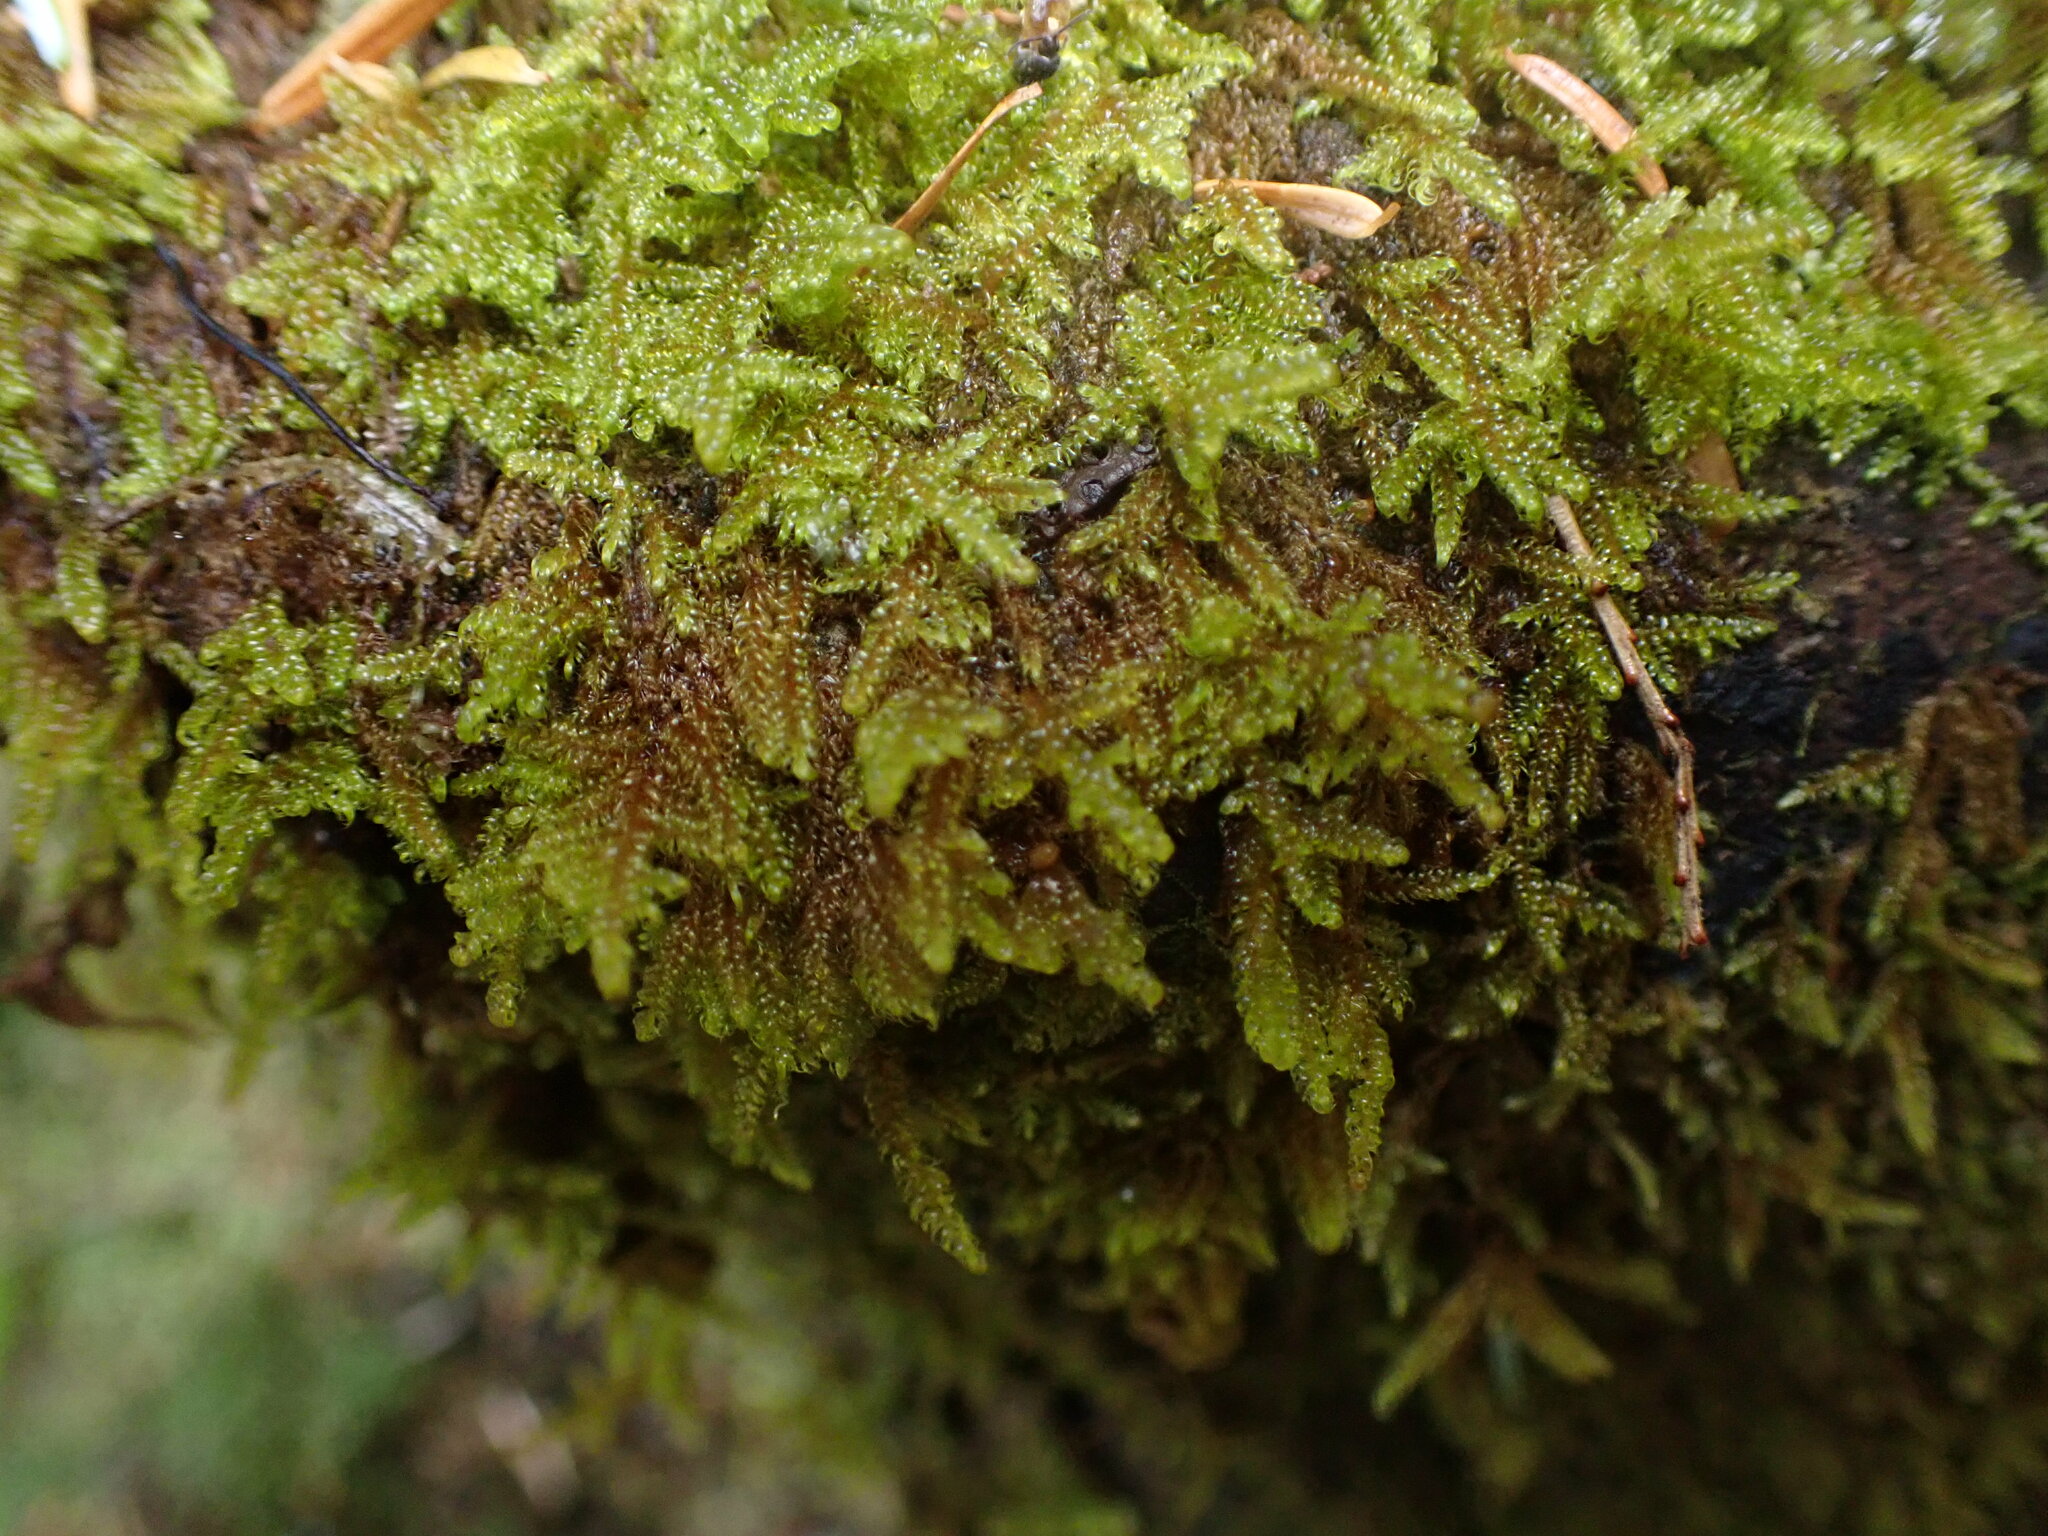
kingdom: Plantae
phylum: Bryophyta
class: Bryopsida
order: Hypnales
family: Pylaisiaceae
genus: Calliergonellopsis
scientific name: Calliergonellopsis dieckii
